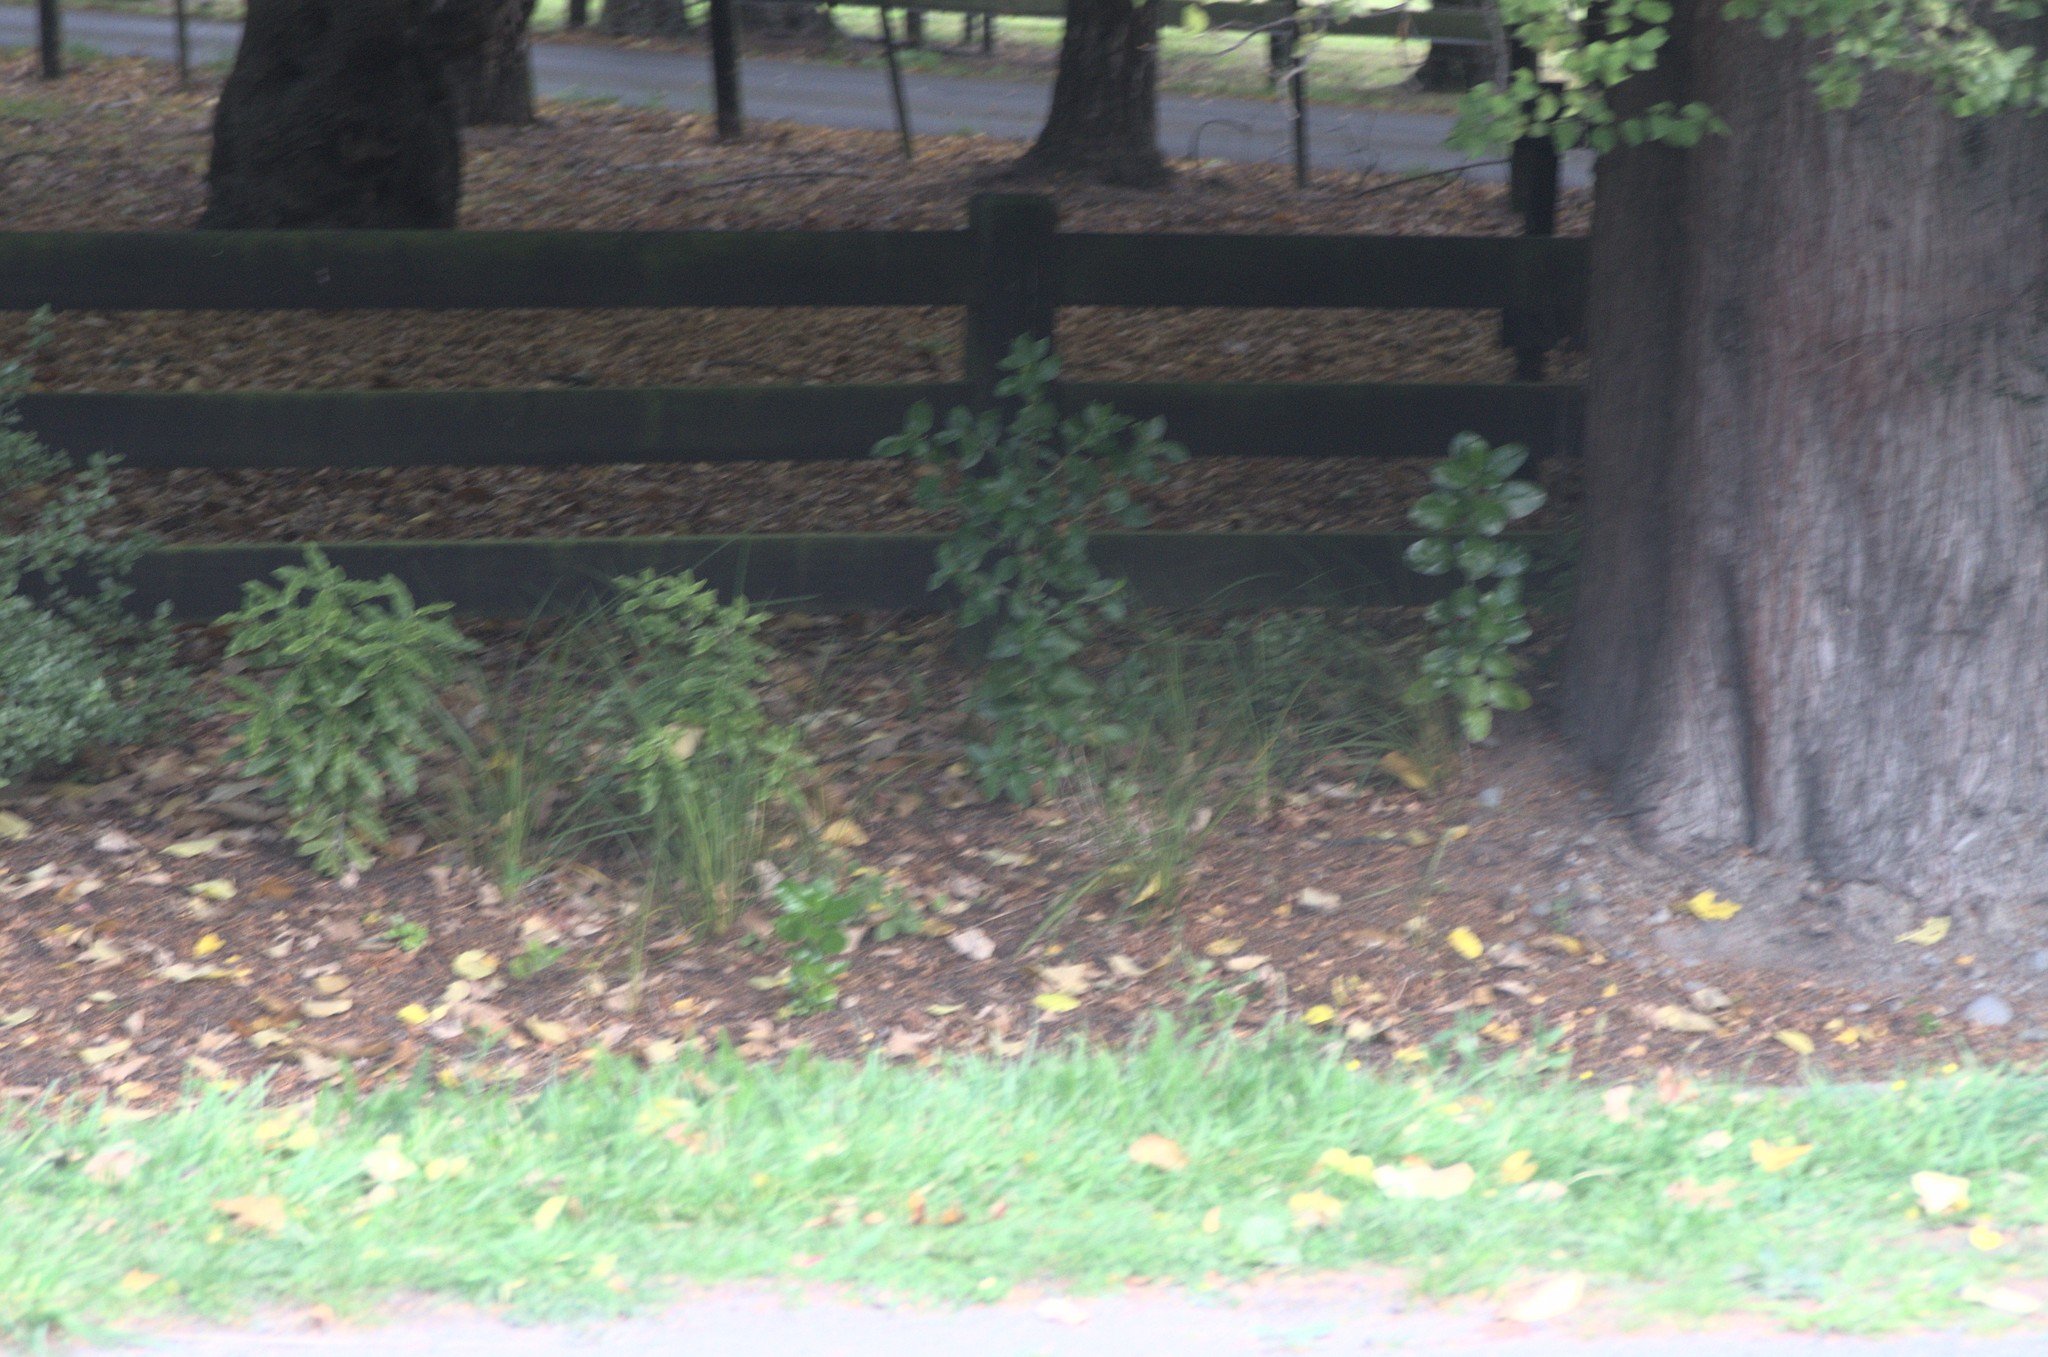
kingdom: Plantae
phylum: Tracheophyta
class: Magnoliopsida
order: Apiales
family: Pittosporaceae
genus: Pittosporum
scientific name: Pittosporum eugenioides
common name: Lemonwood
